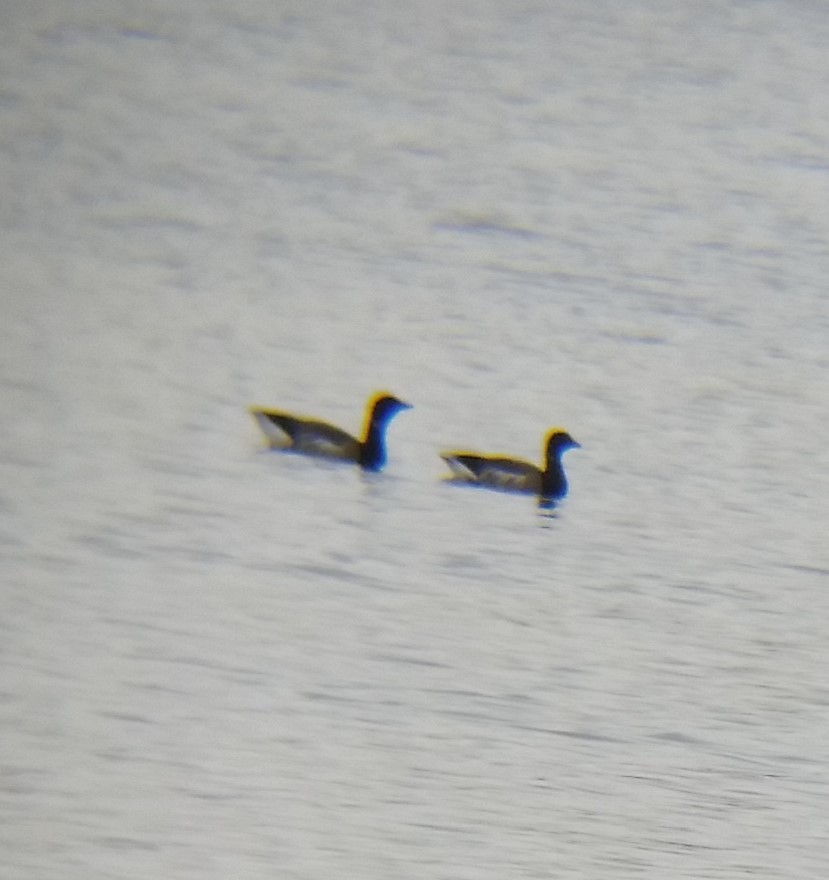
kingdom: Animalia
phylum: Chordata
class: Aves
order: Anseriformes
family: Anatidae
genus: Branta
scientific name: Branta bernicla
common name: Brant goose
